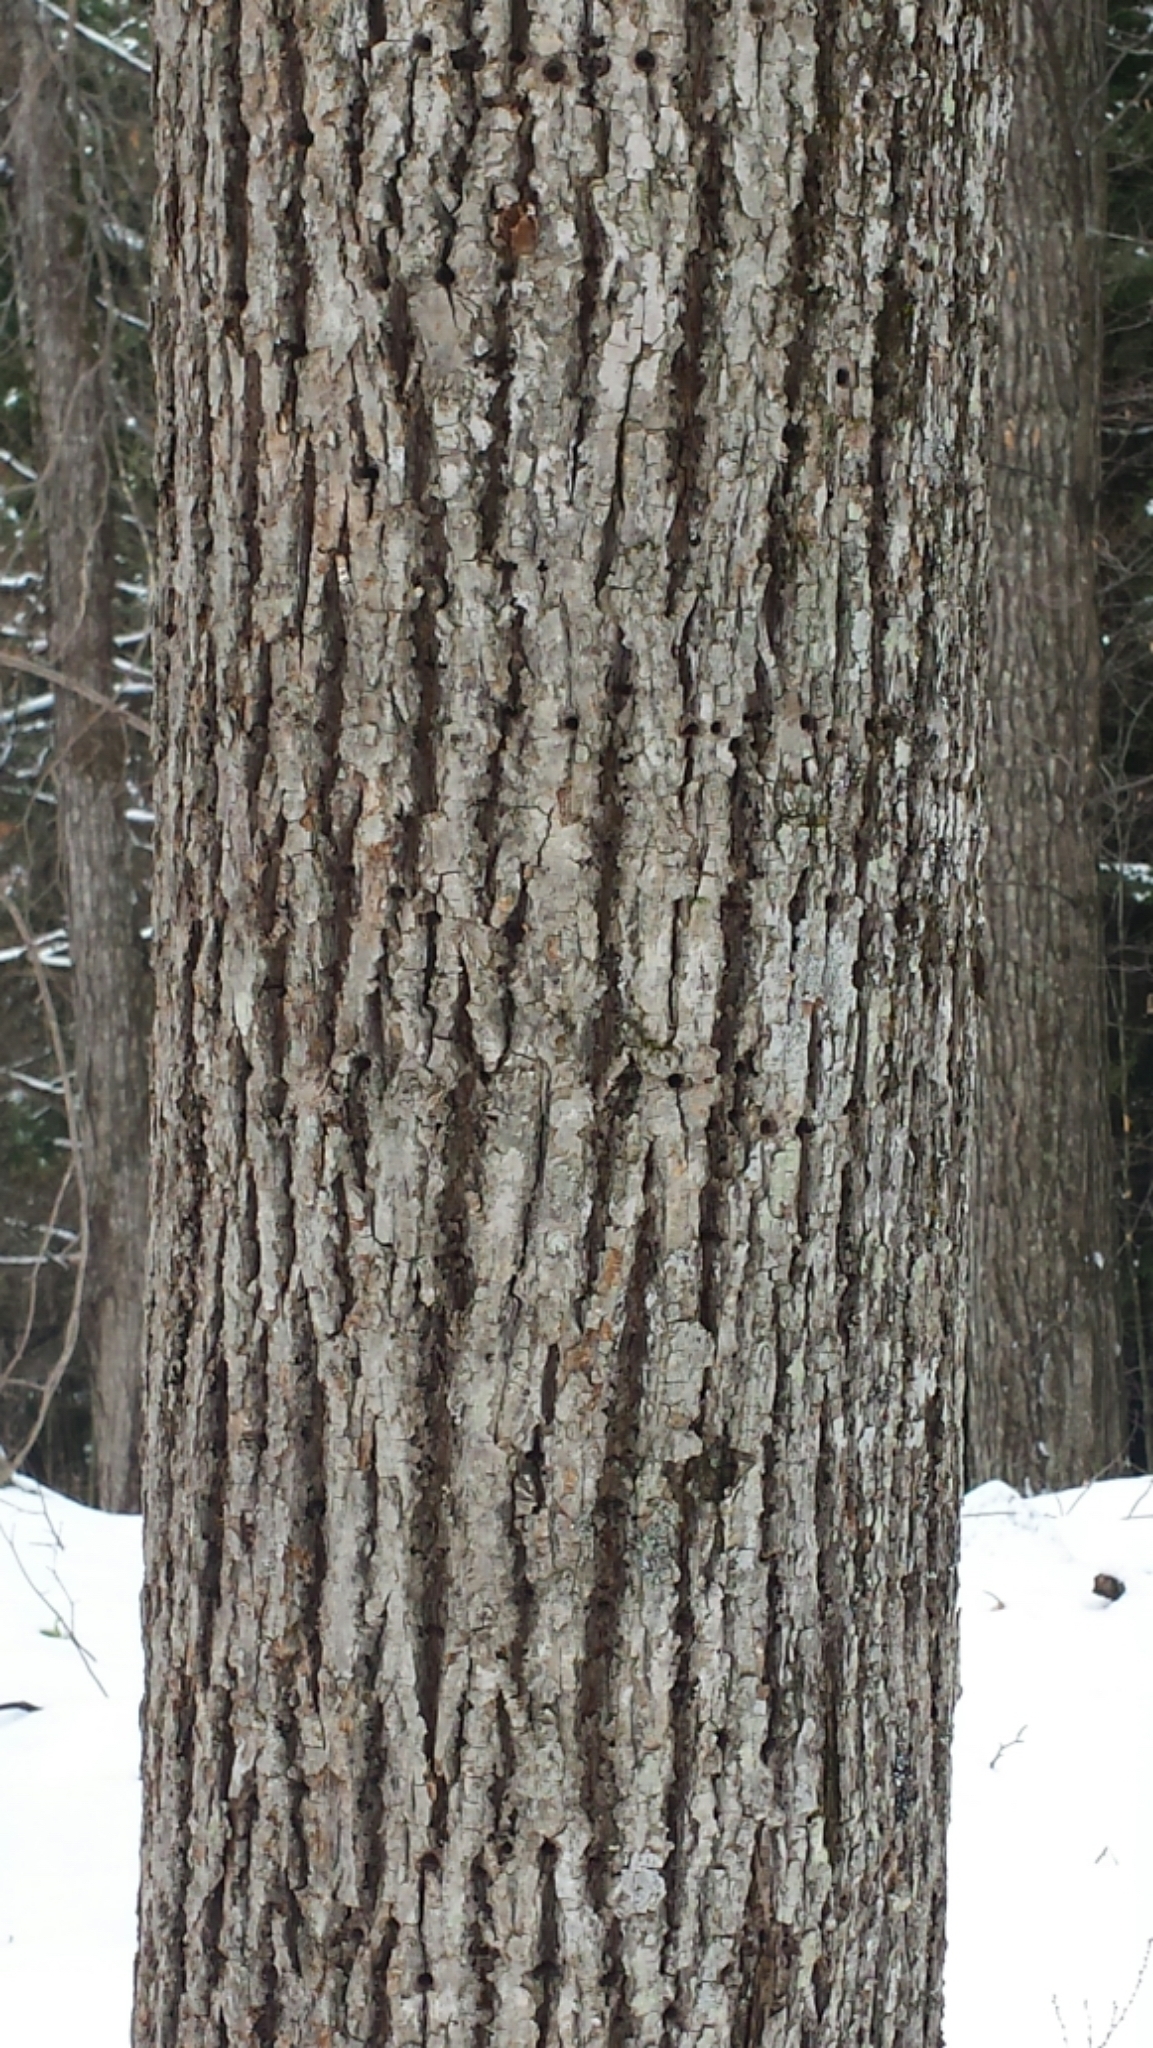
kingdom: Plantae
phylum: Tracheophyta
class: Magnoliopsida
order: Malvales
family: Malvaceae
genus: Tilia
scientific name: Tilia americana
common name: Basswood
